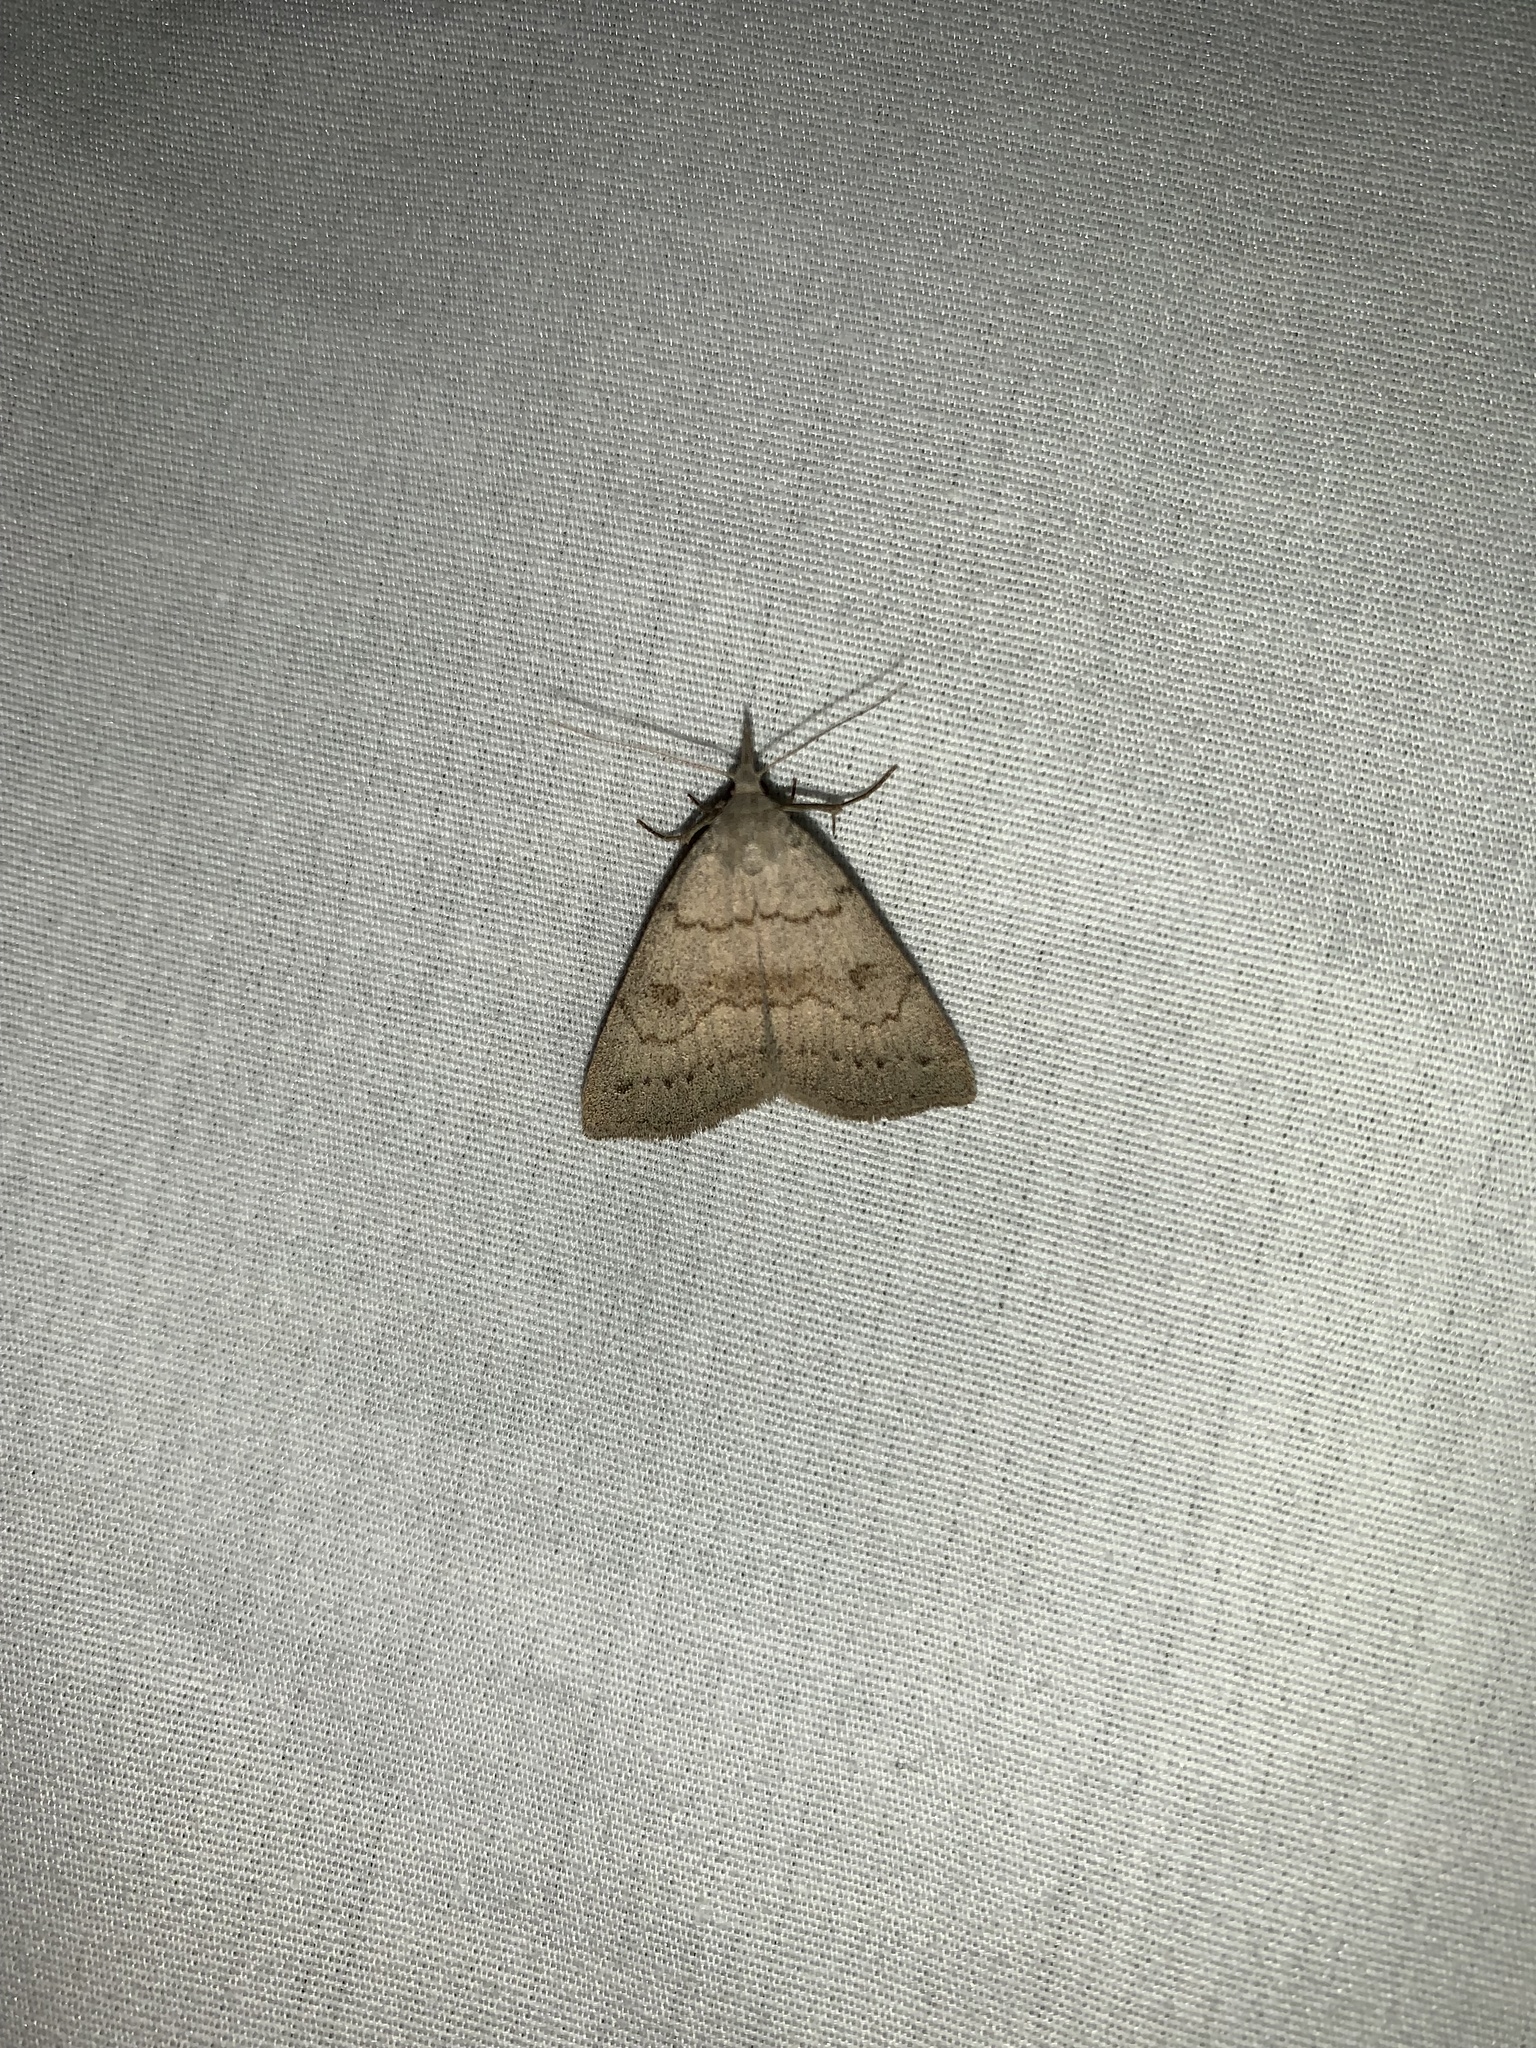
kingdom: Animalia
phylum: Arthropoda
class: Insecta
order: Lepidoptera
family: Erebidae
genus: Macrochilo
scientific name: Macrochilo morbidalis
